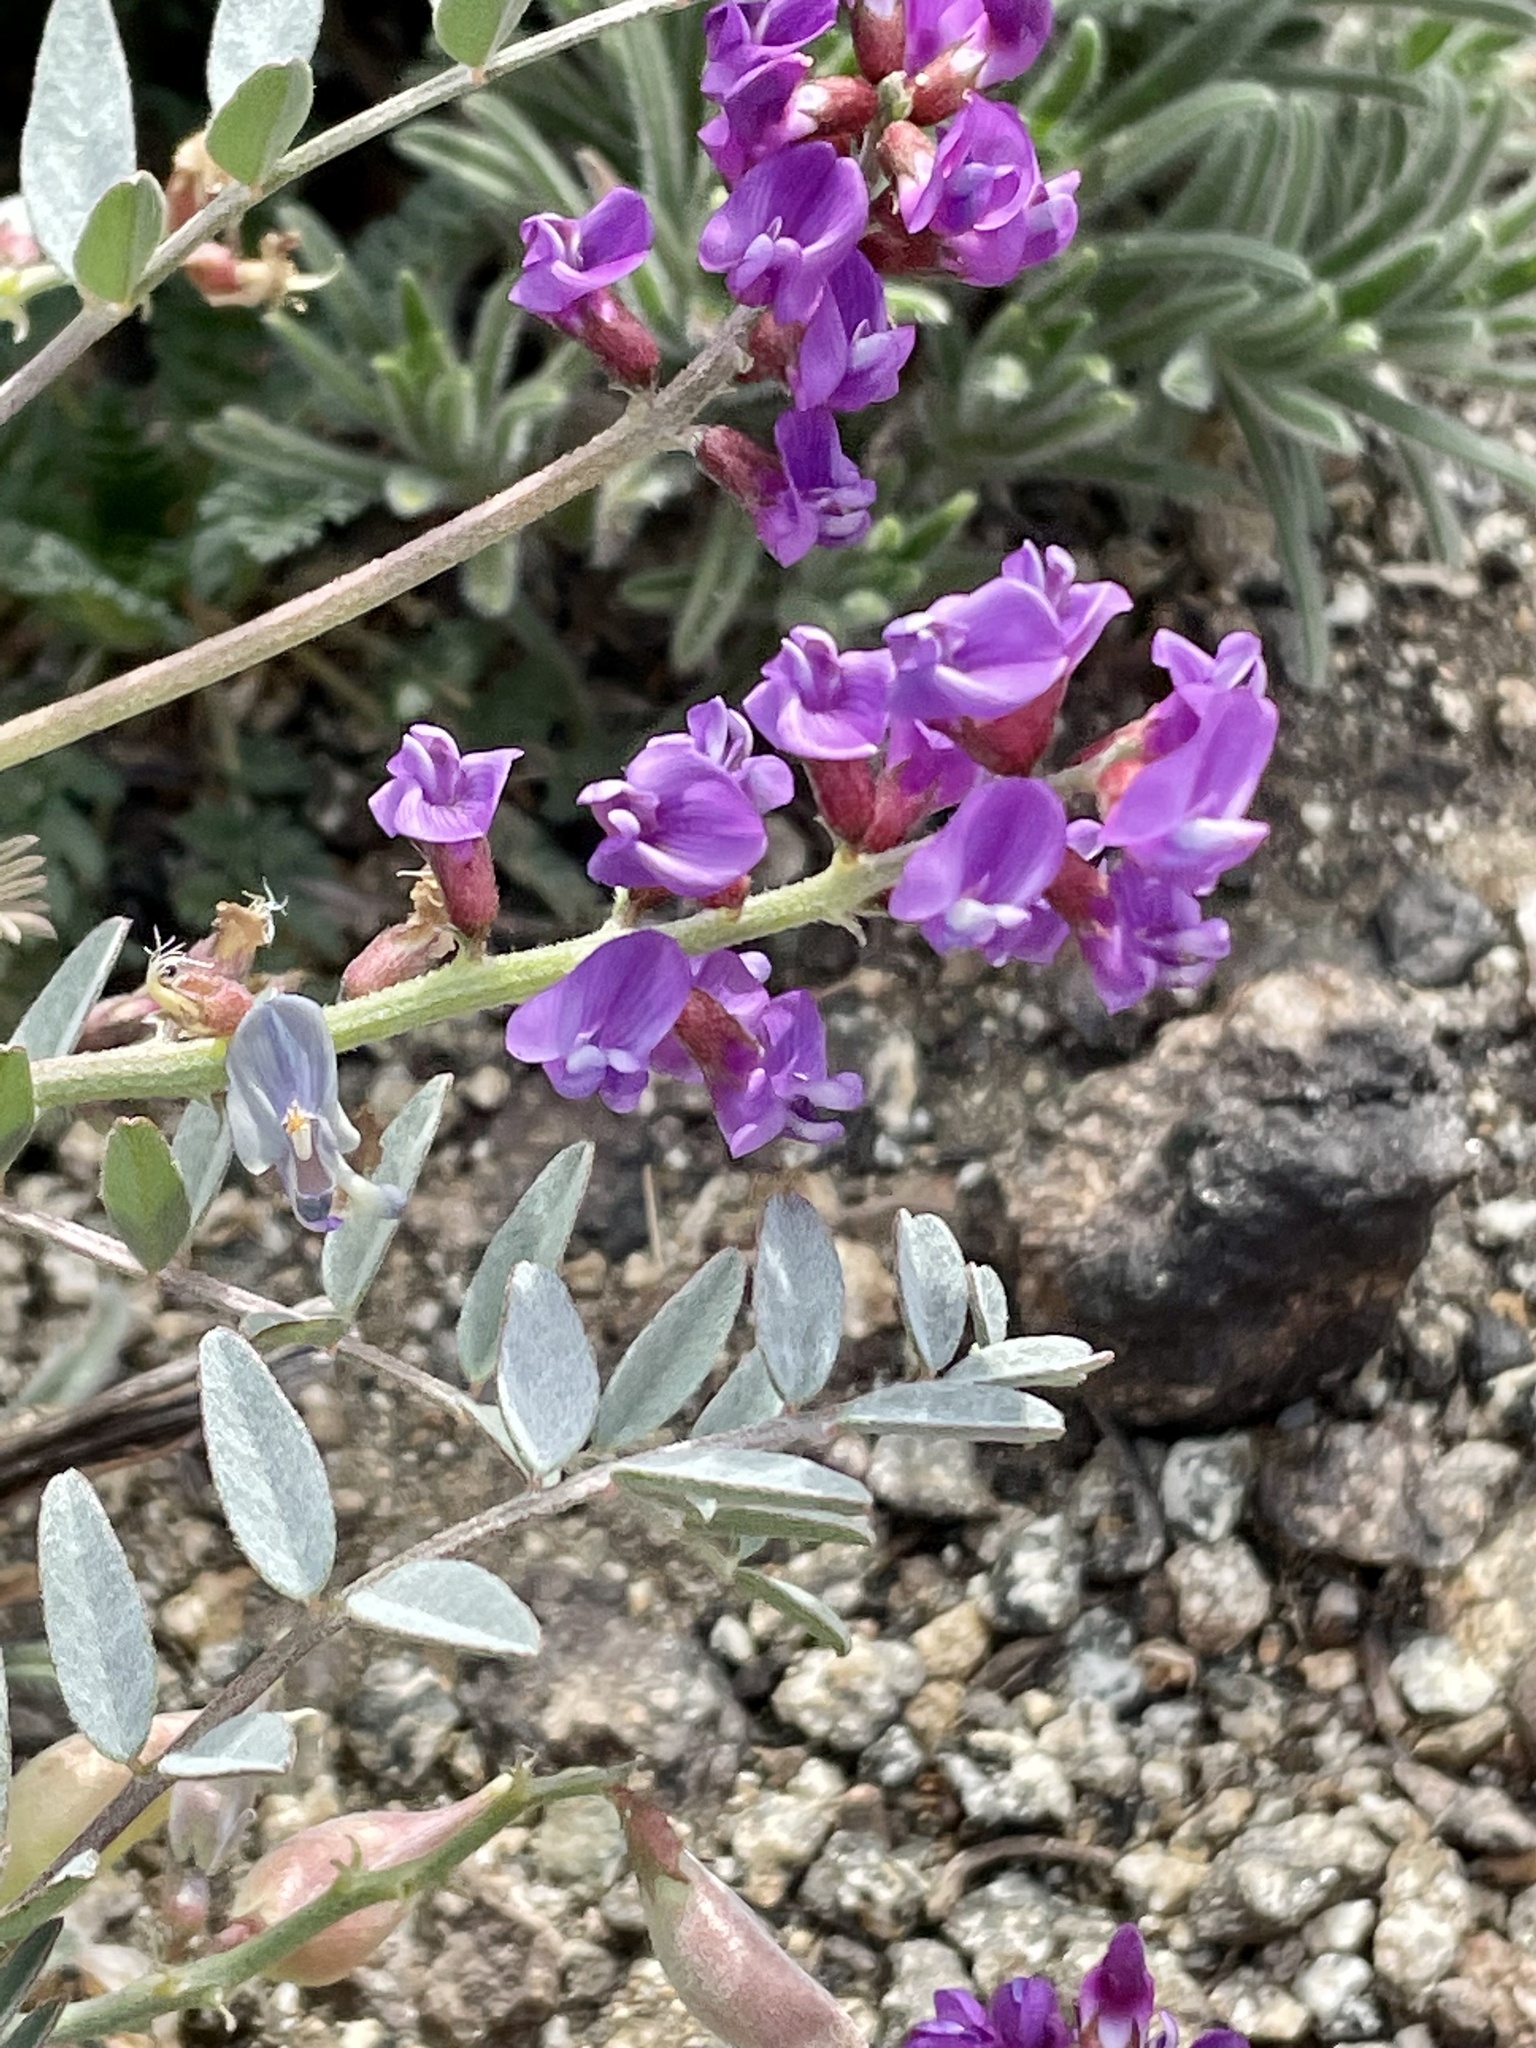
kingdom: Plantae
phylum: Tracheophyta
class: Magnoliopsida
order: Fabales
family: Fabaceae
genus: Astragalus
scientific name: Astragalus palmeri
